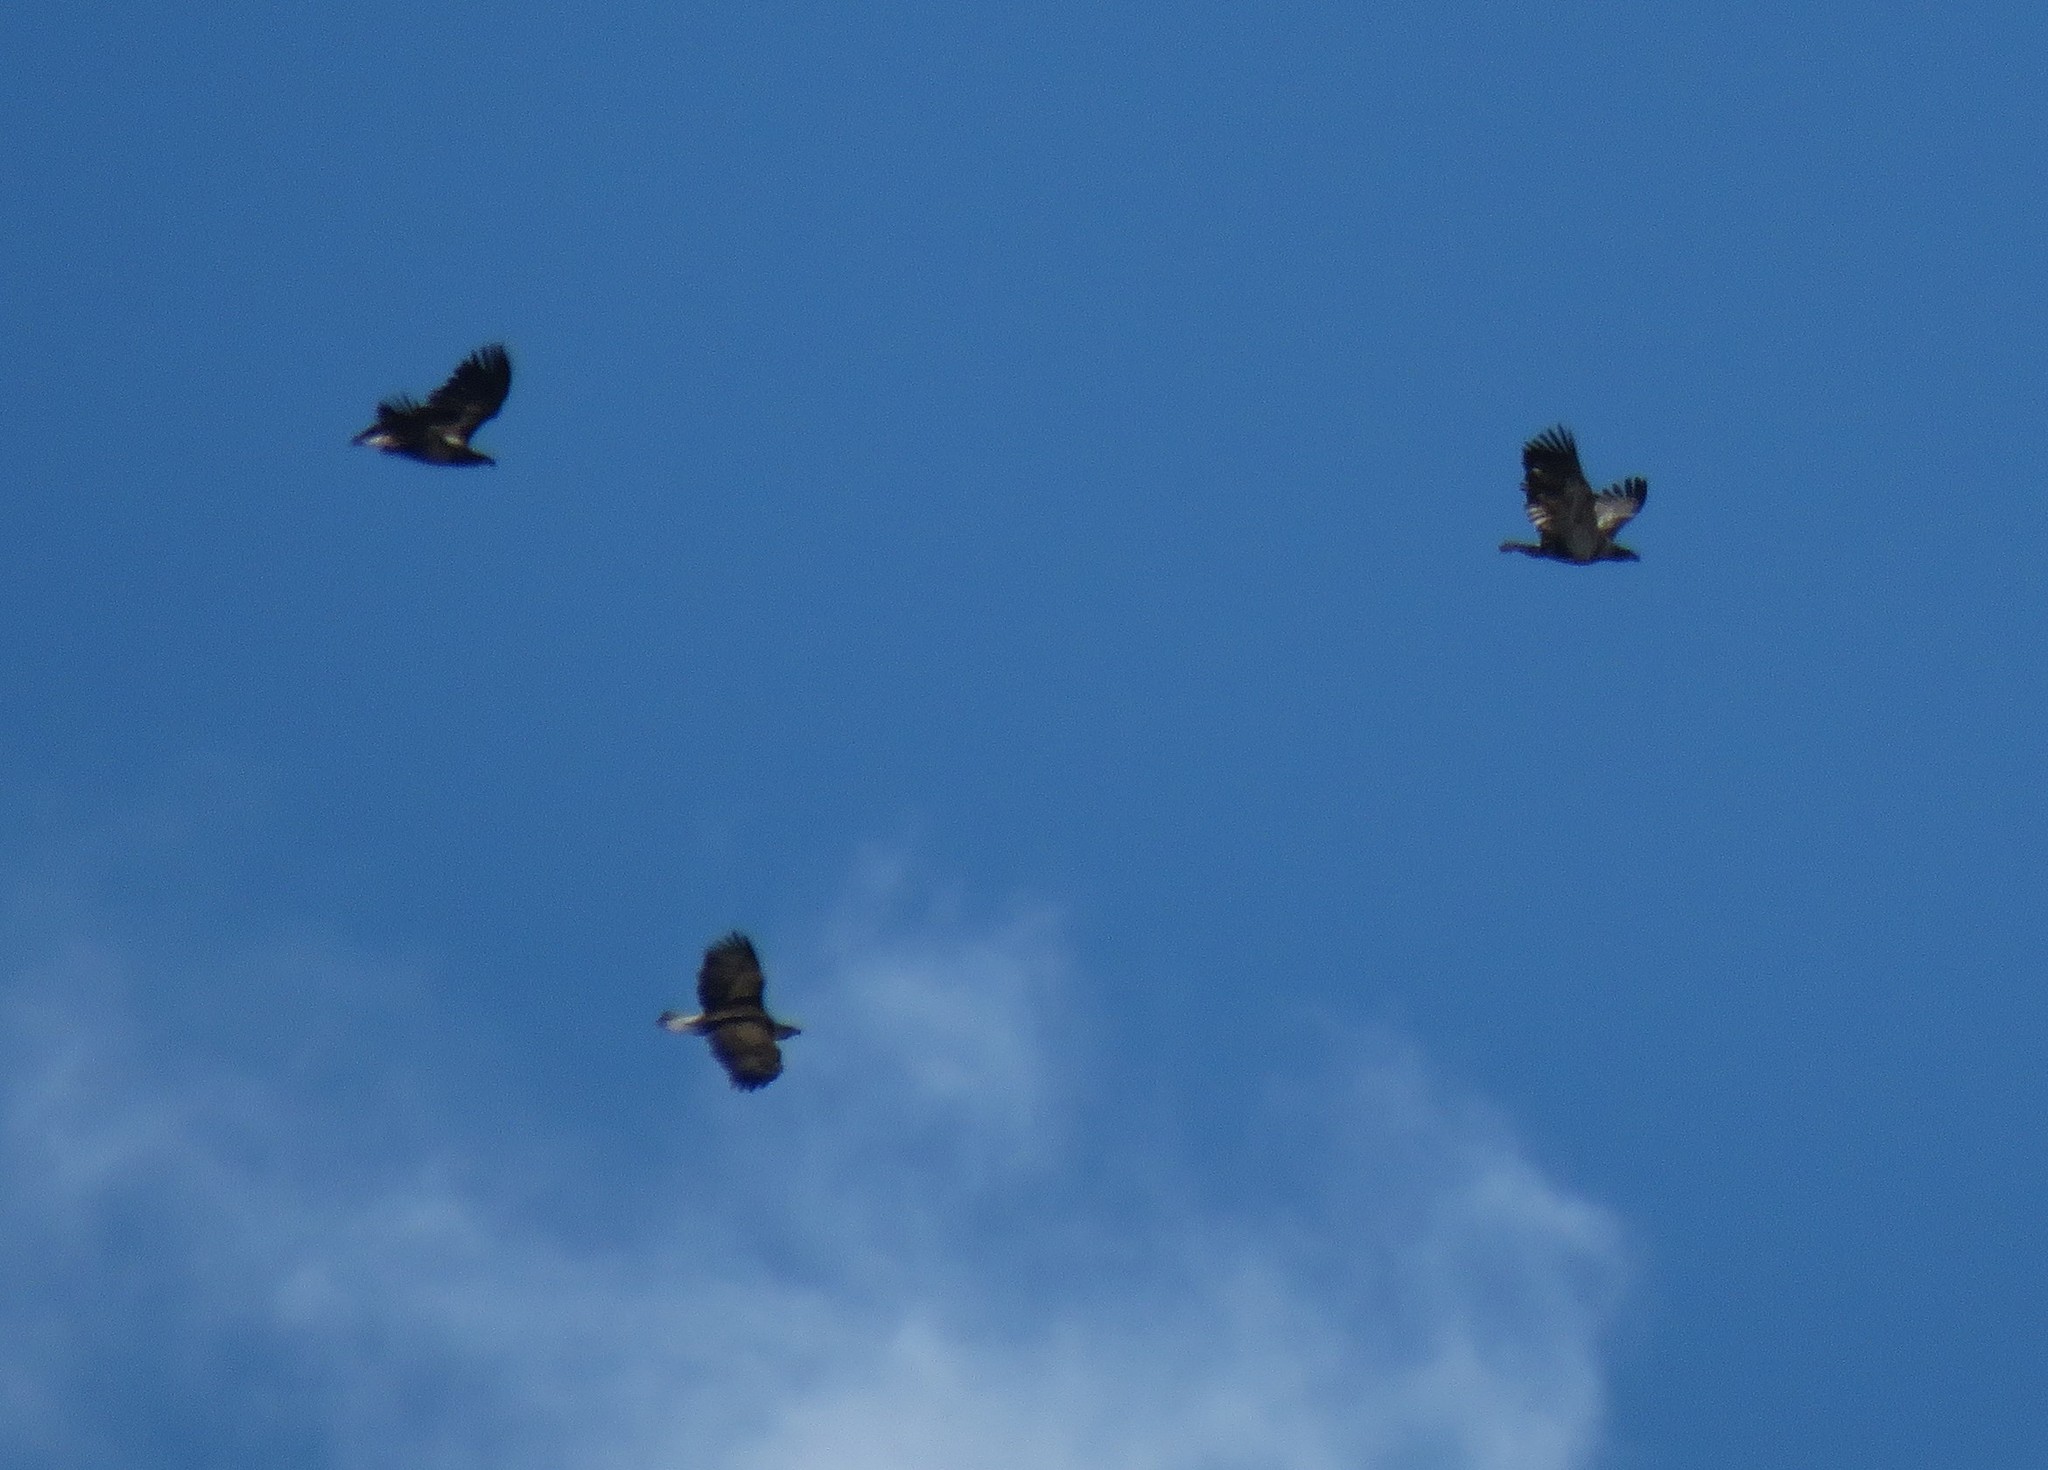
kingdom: Animalia
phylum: Chordata
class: Aves
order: Accipitriformes
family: Accipitridae
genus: Haliaeetus
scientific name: Haliaeetus leucocephalus
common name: Bald eagle
